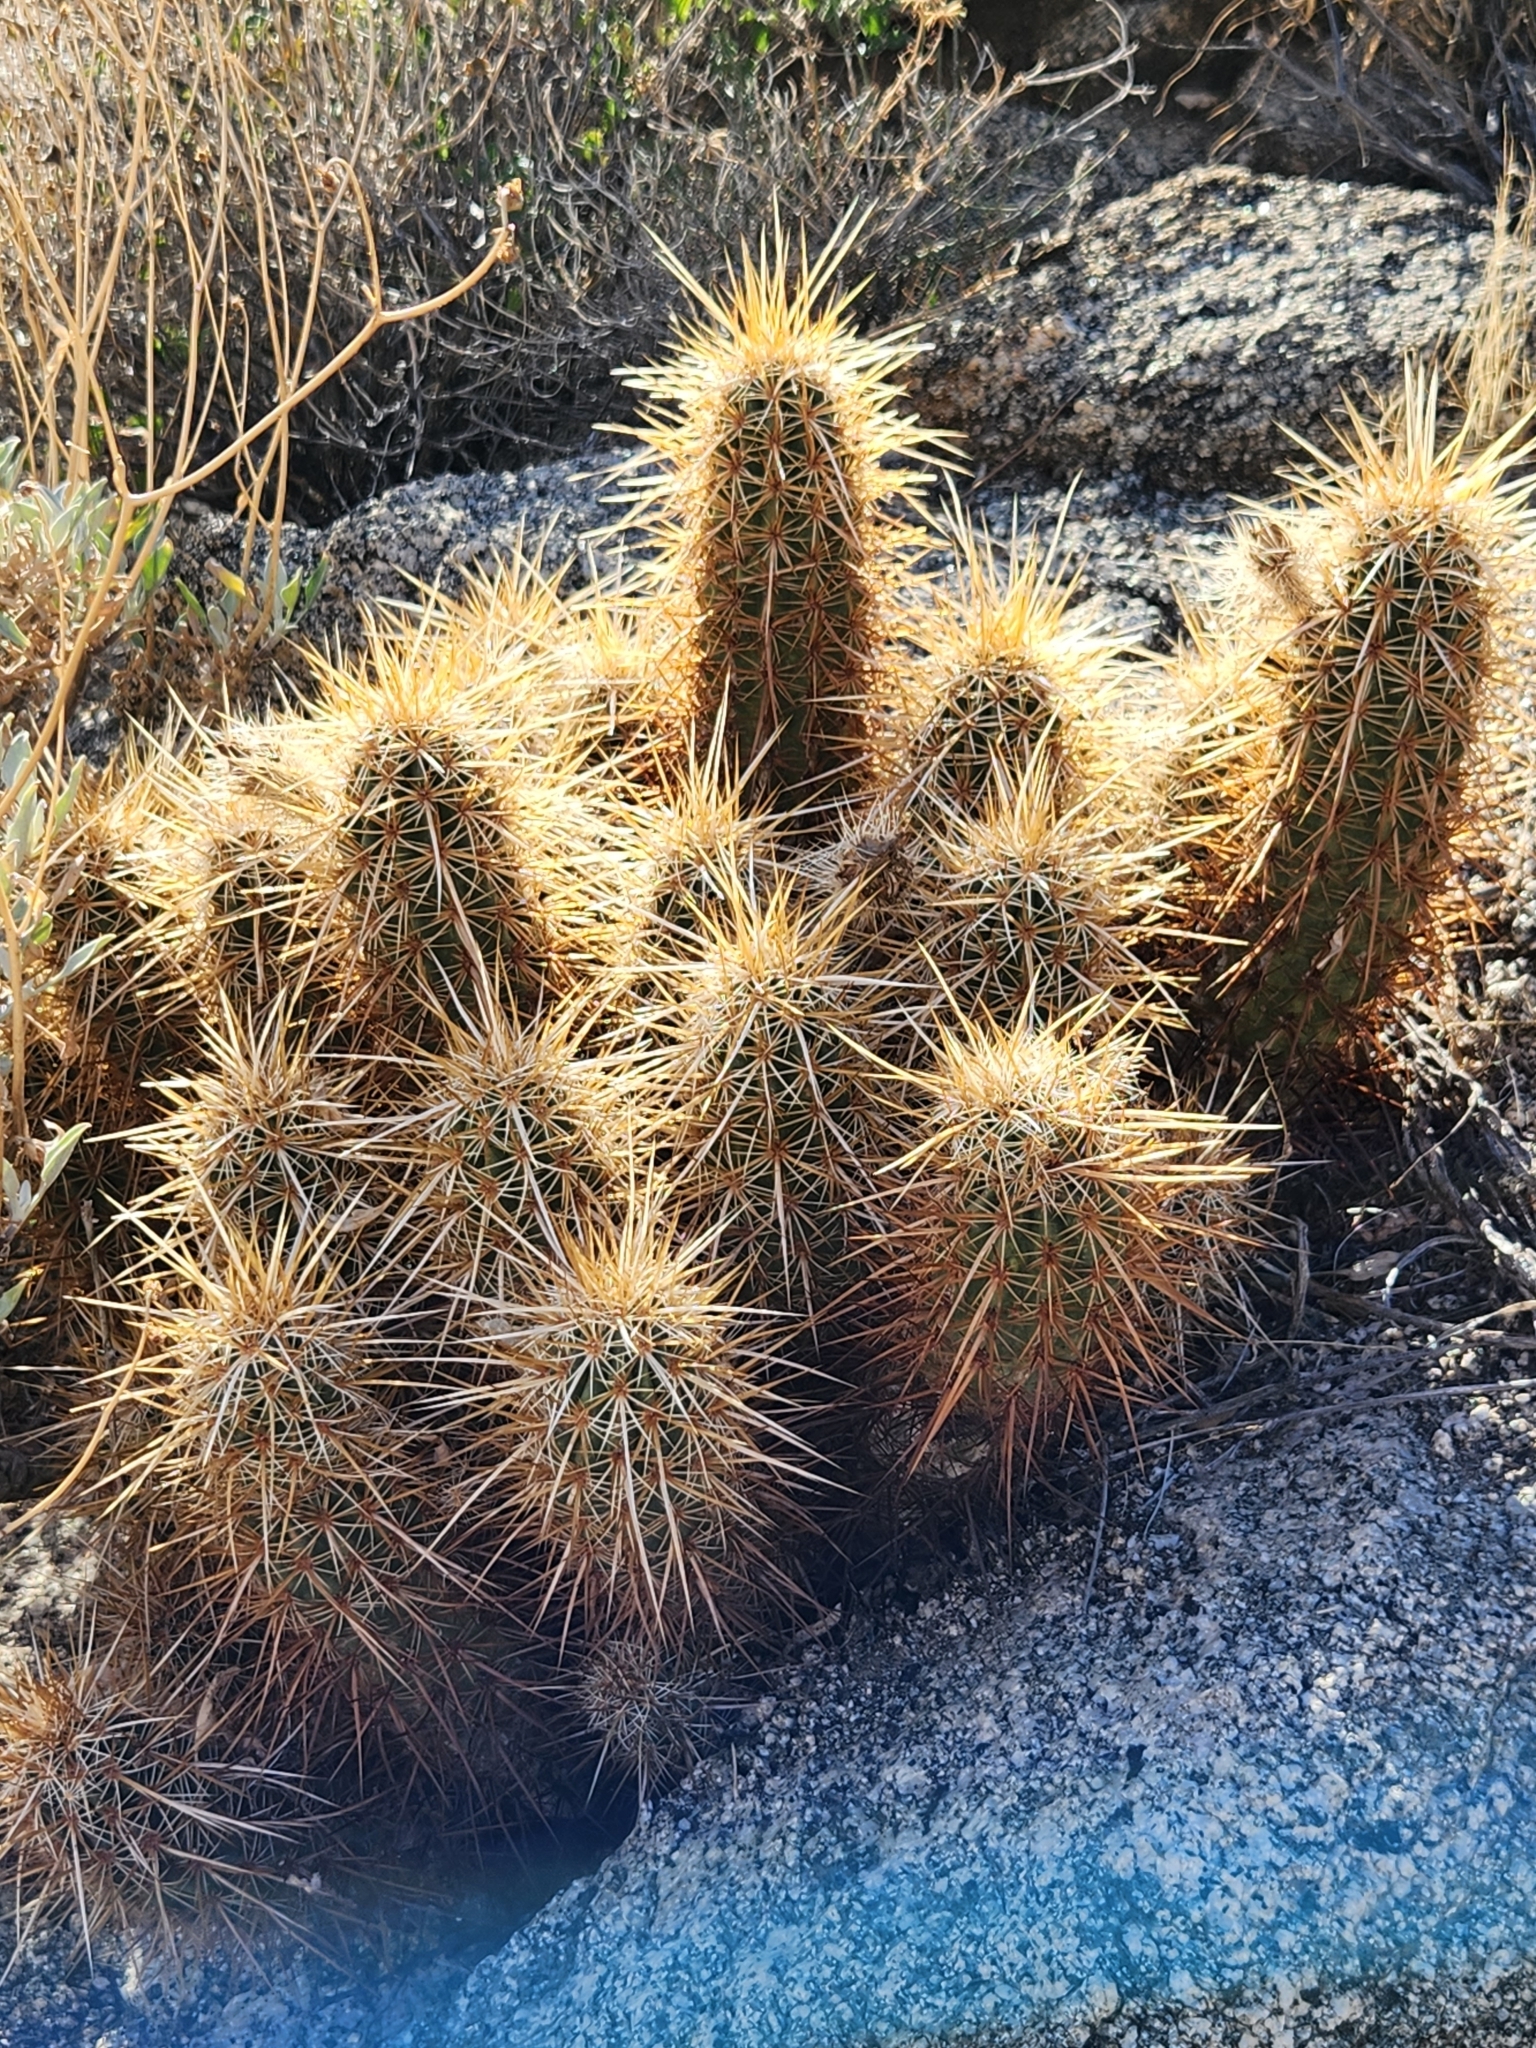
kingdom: Plantae
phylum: Tracheophyta
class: Magnoliopsida
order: Caryophyllales
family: Cactaceae
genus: Echinocereus
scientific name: Echinocereus engelmannii
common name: Engelmann's hedgehog cactus
